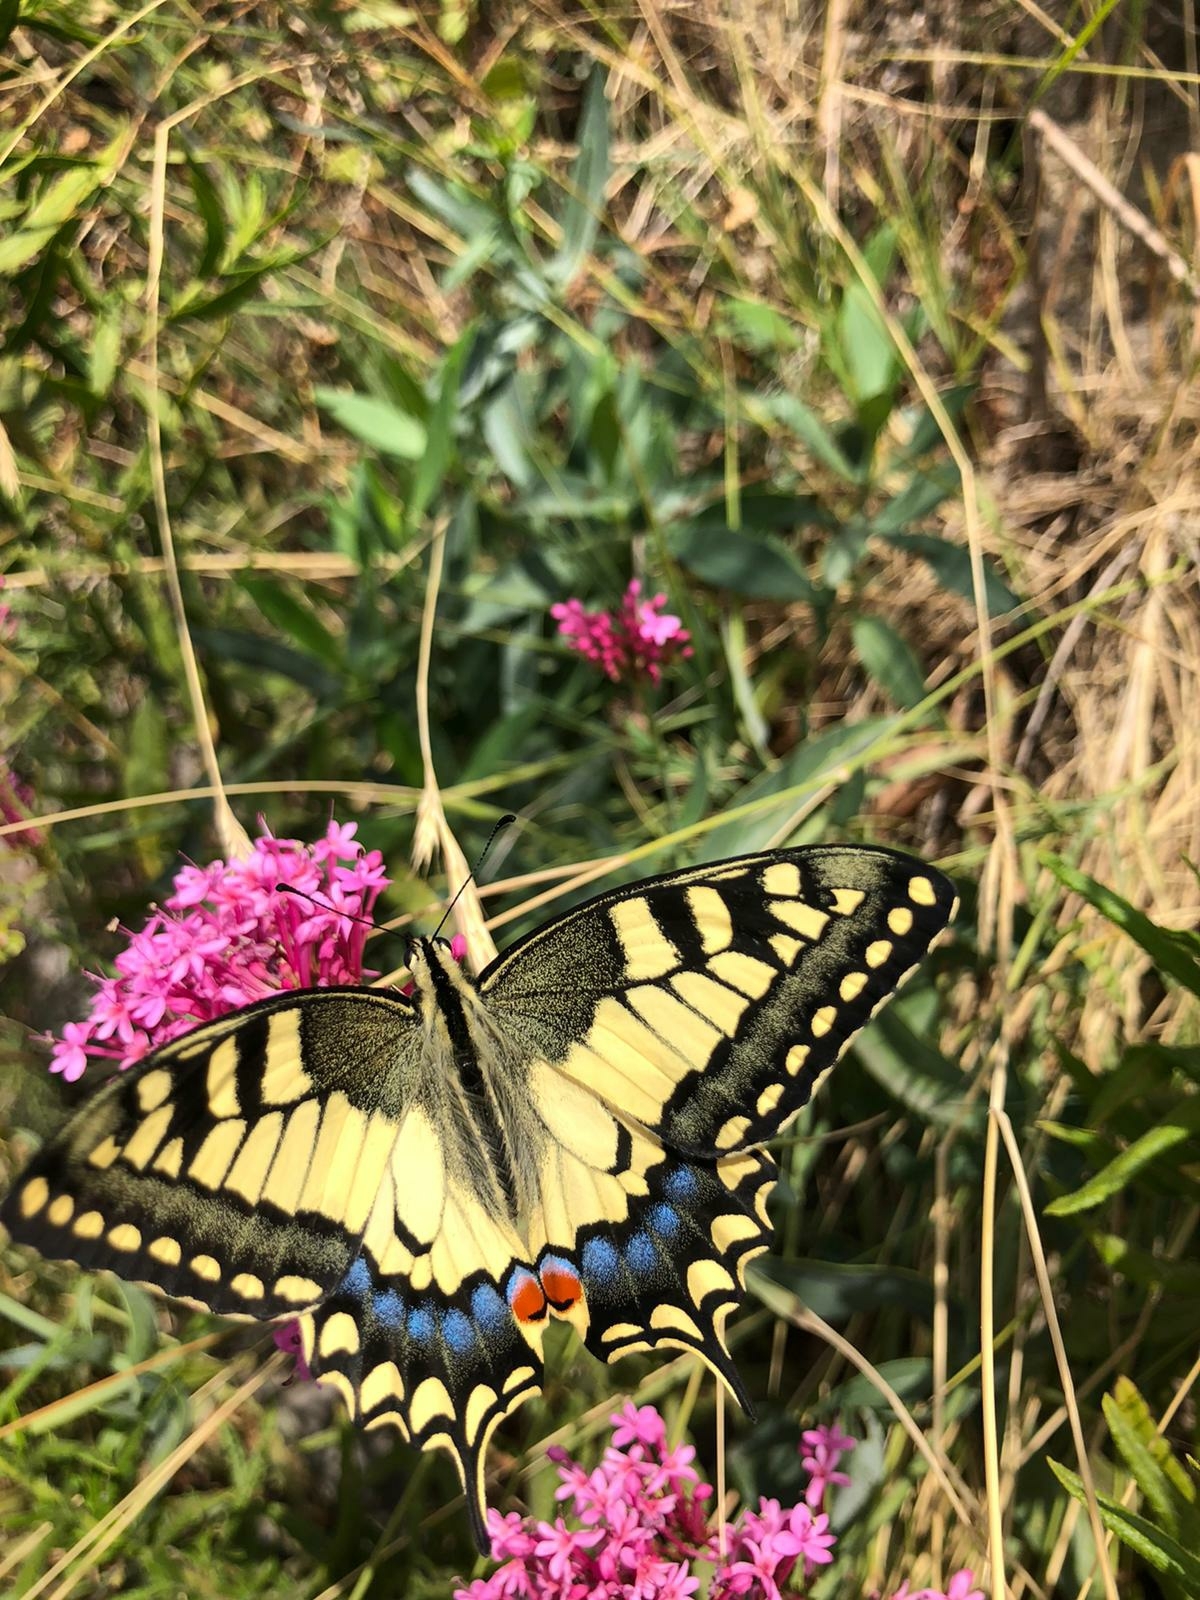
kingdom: Animalia
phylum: Arthropoda
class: Insecta
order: Lepidoptera
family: Papilionidae
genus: Papilio
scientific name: Papilio machaon
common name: Swallowtail
